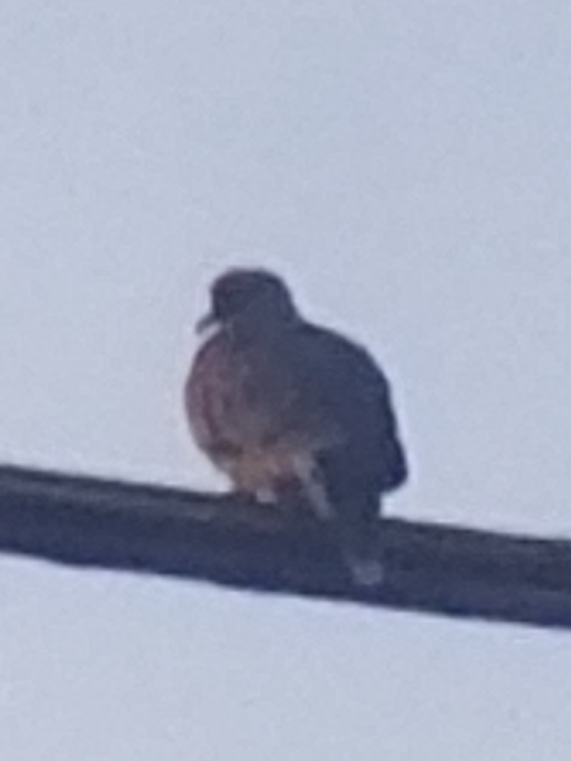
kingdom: Animalia
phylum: Chordata
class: Aves
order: Columbiformes
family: Columbidae
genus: Zenaida
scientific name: Zenaida macroura
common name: Mourning dove
